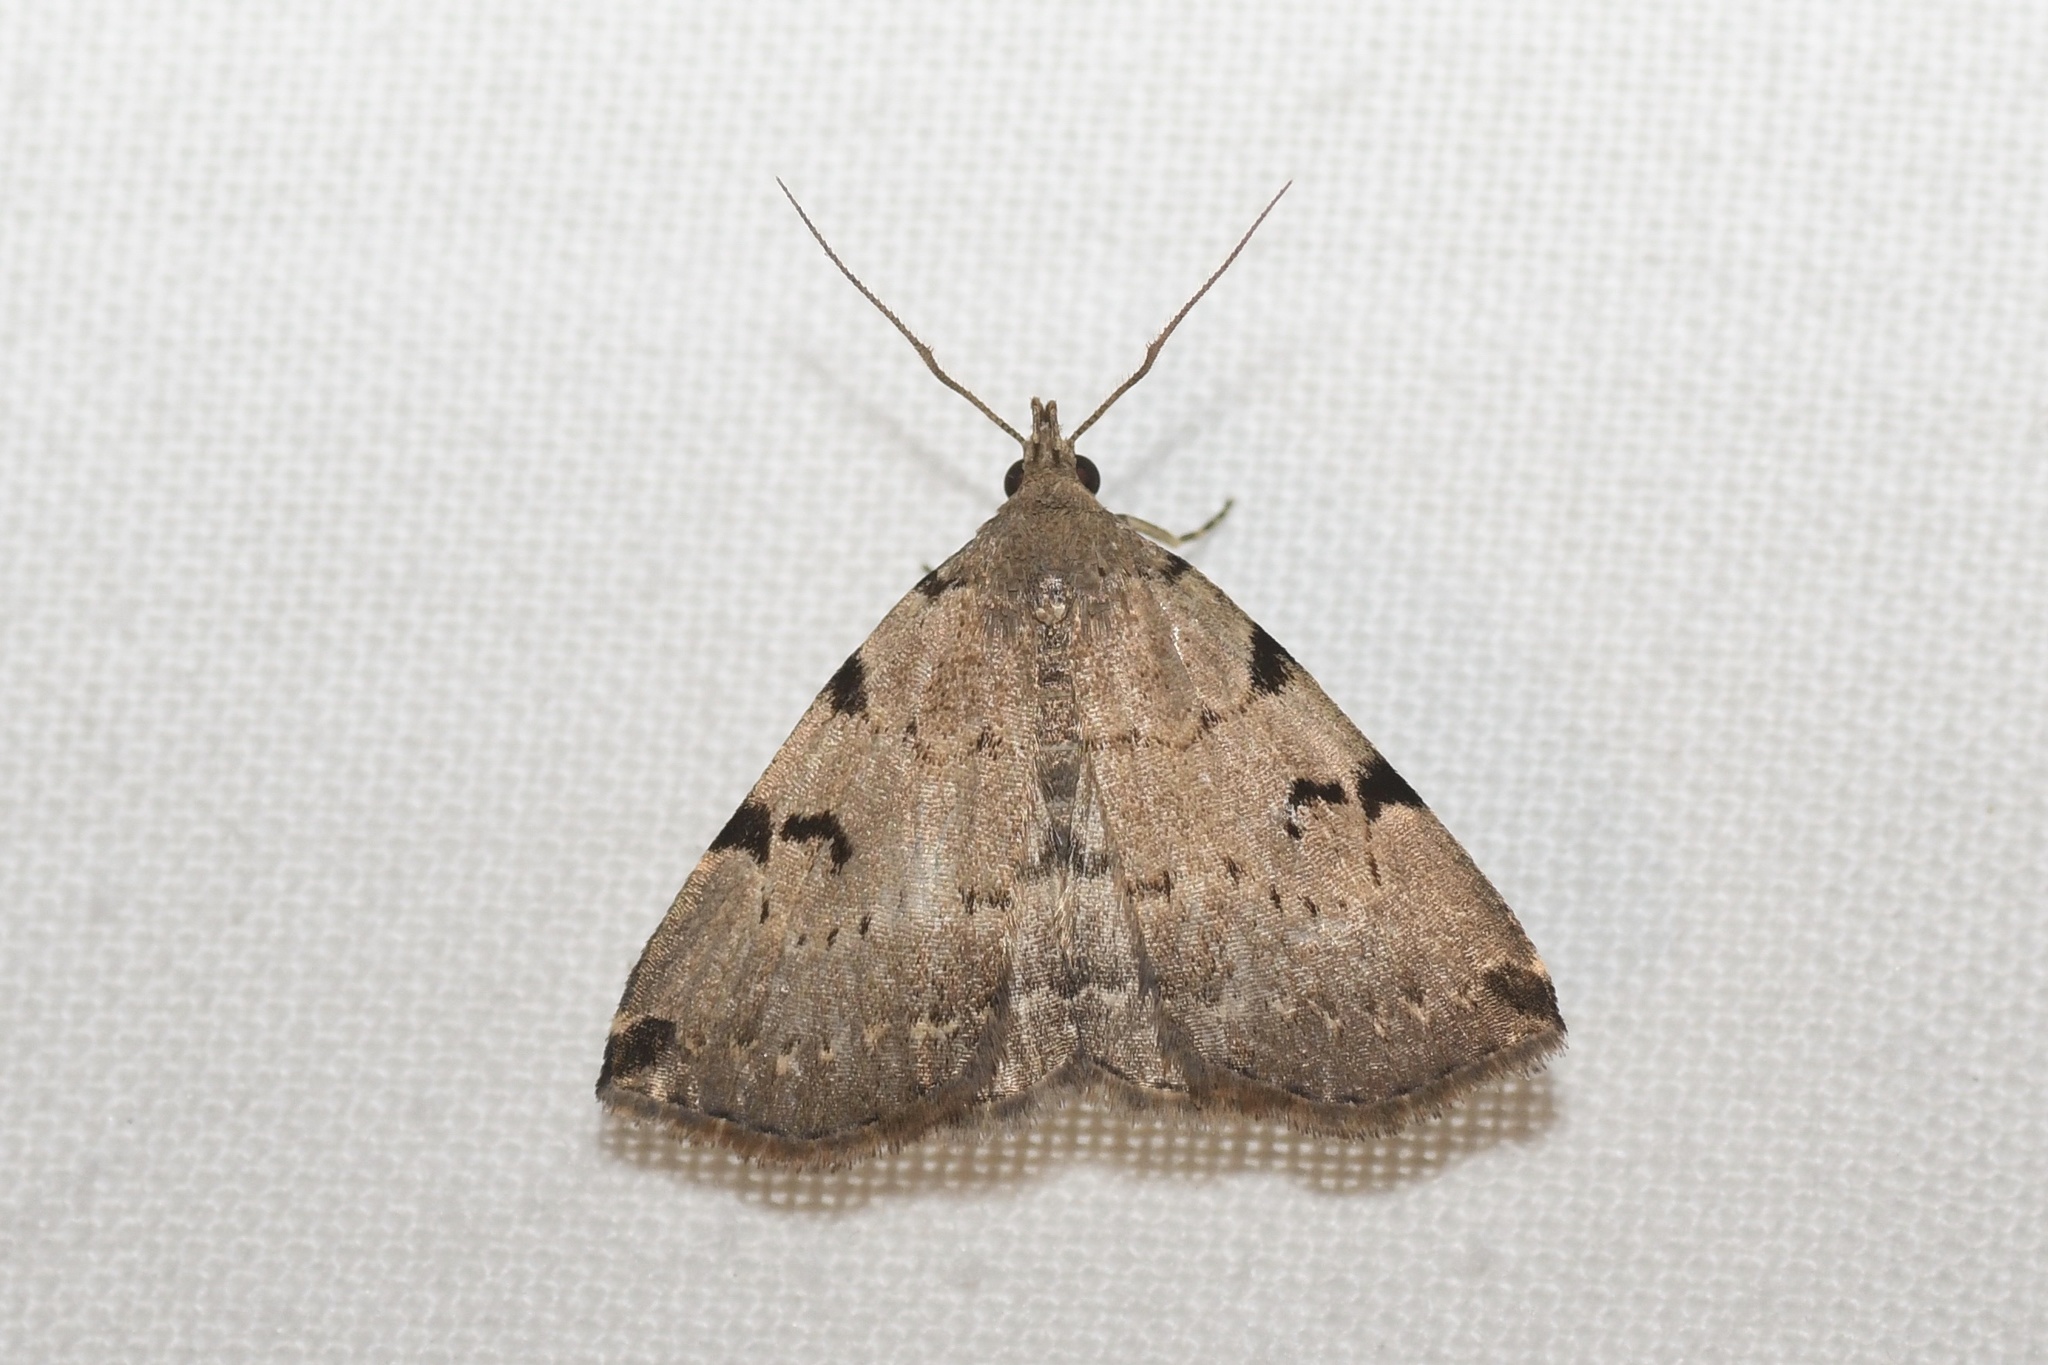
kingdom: Animalia
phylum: Arthropoda
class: Insecta
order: Lepidoptera
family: Erebidae
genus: Zanclognatha
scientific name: Zanclognatha lituralis
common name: Lettered fan-foot
